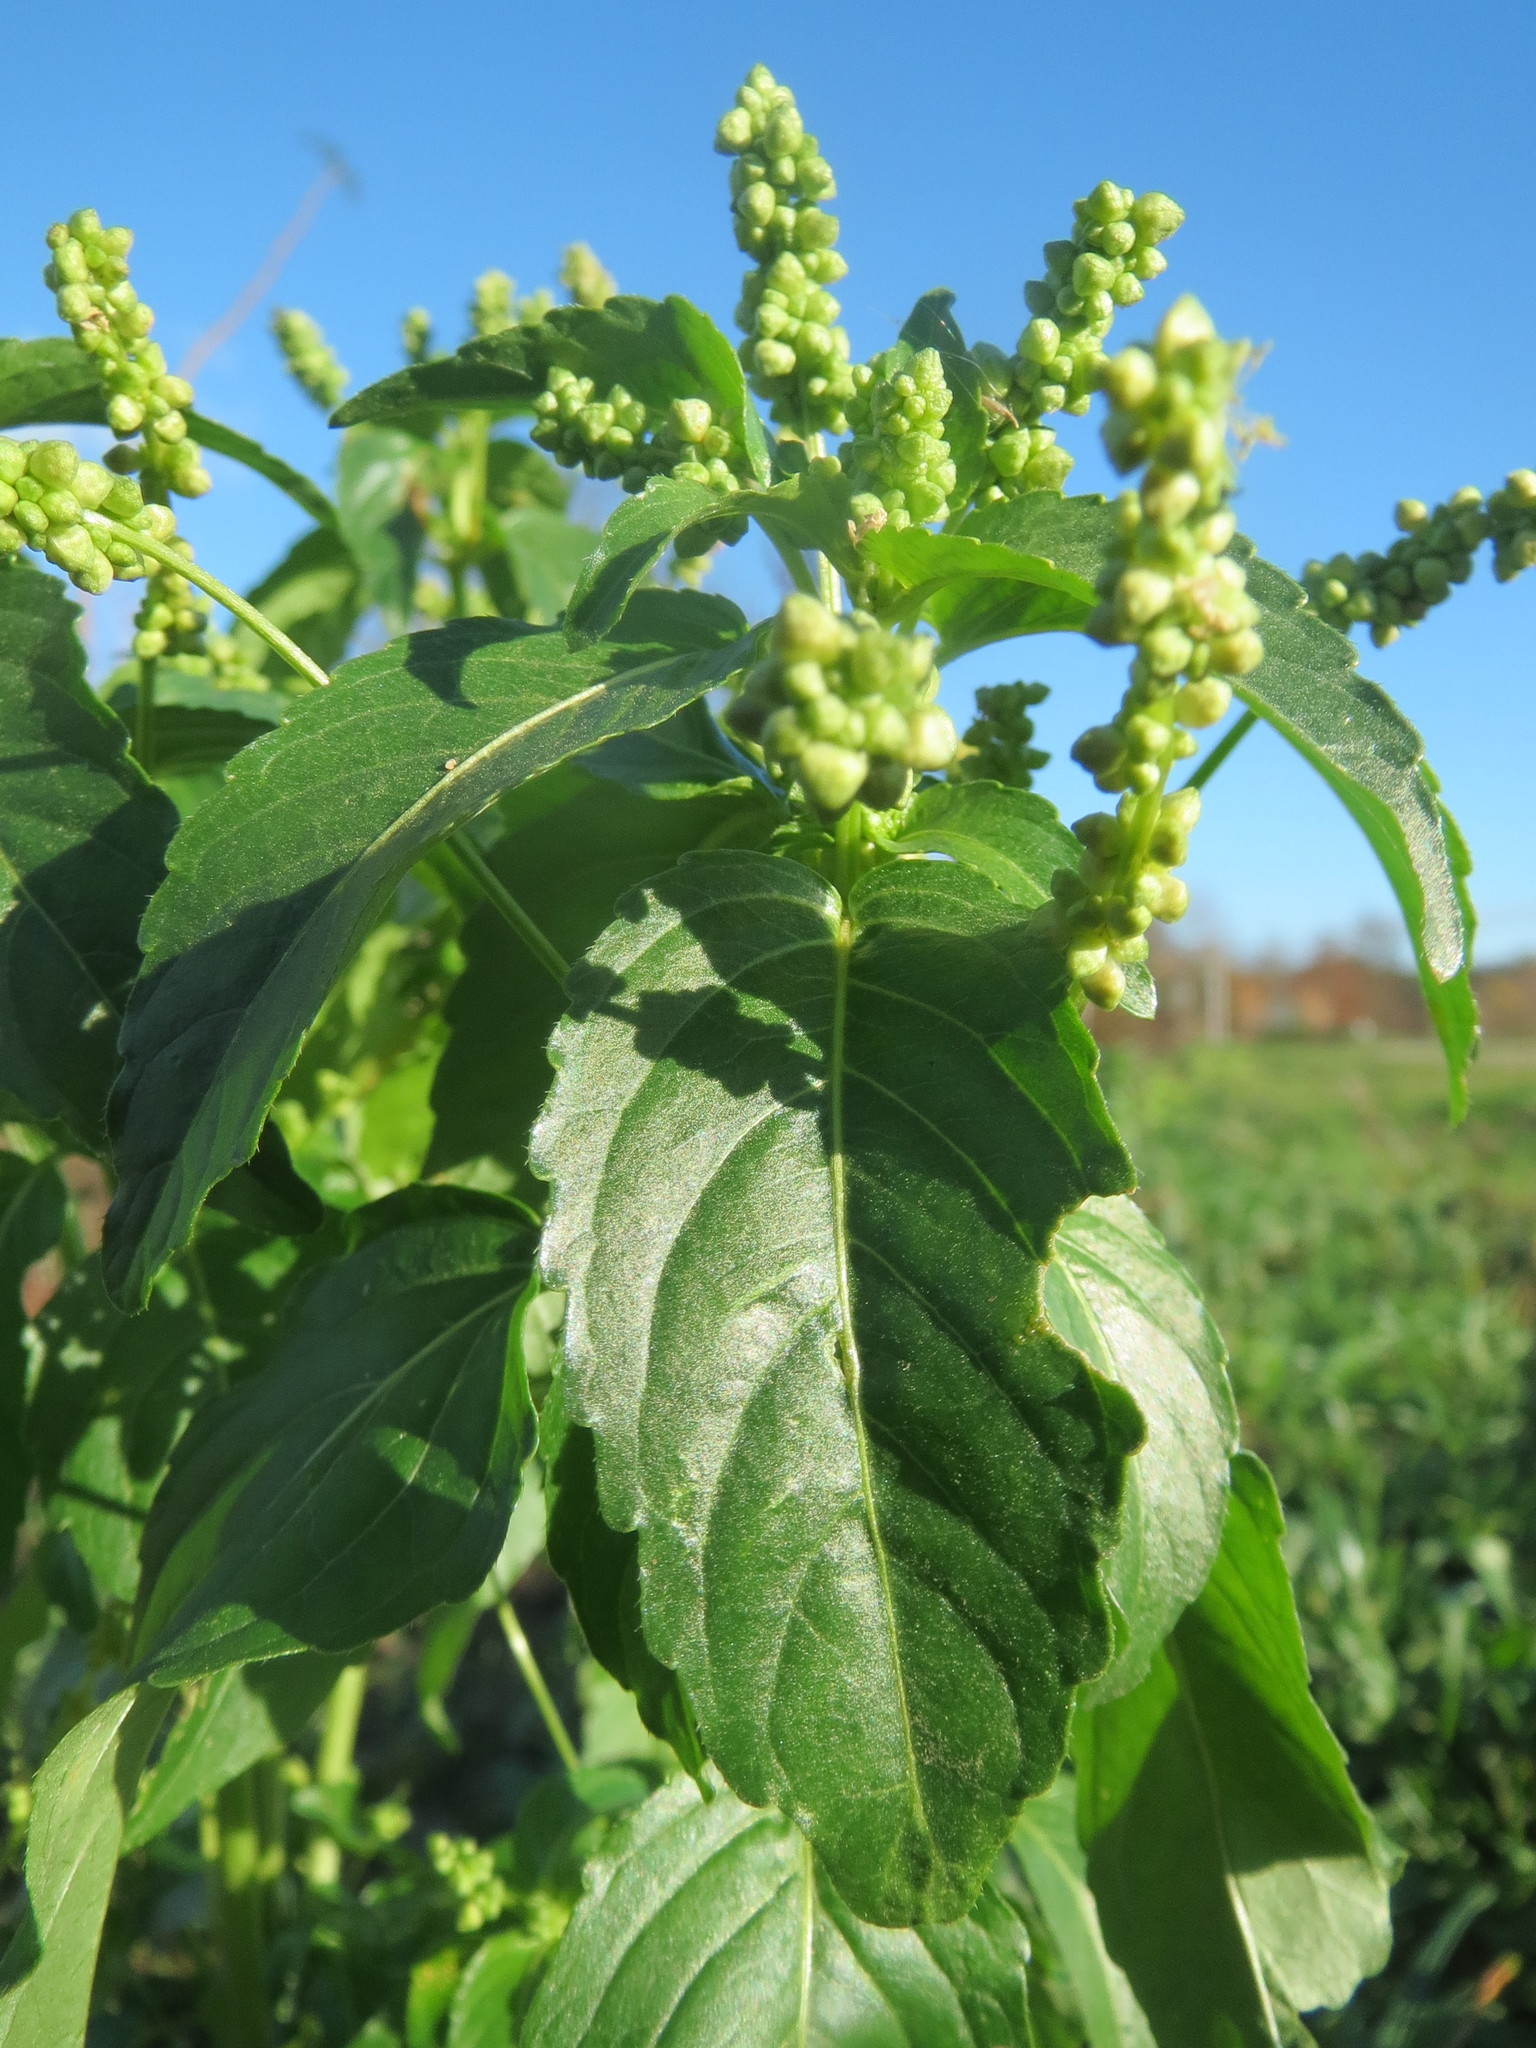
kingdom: Plantae
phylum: Tracheophyta
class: Magnoliopsida
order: Malpighiales
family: Euphorbiaceae
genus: Mercurialis
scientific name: Mercurialis annua
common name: Annual mercury
